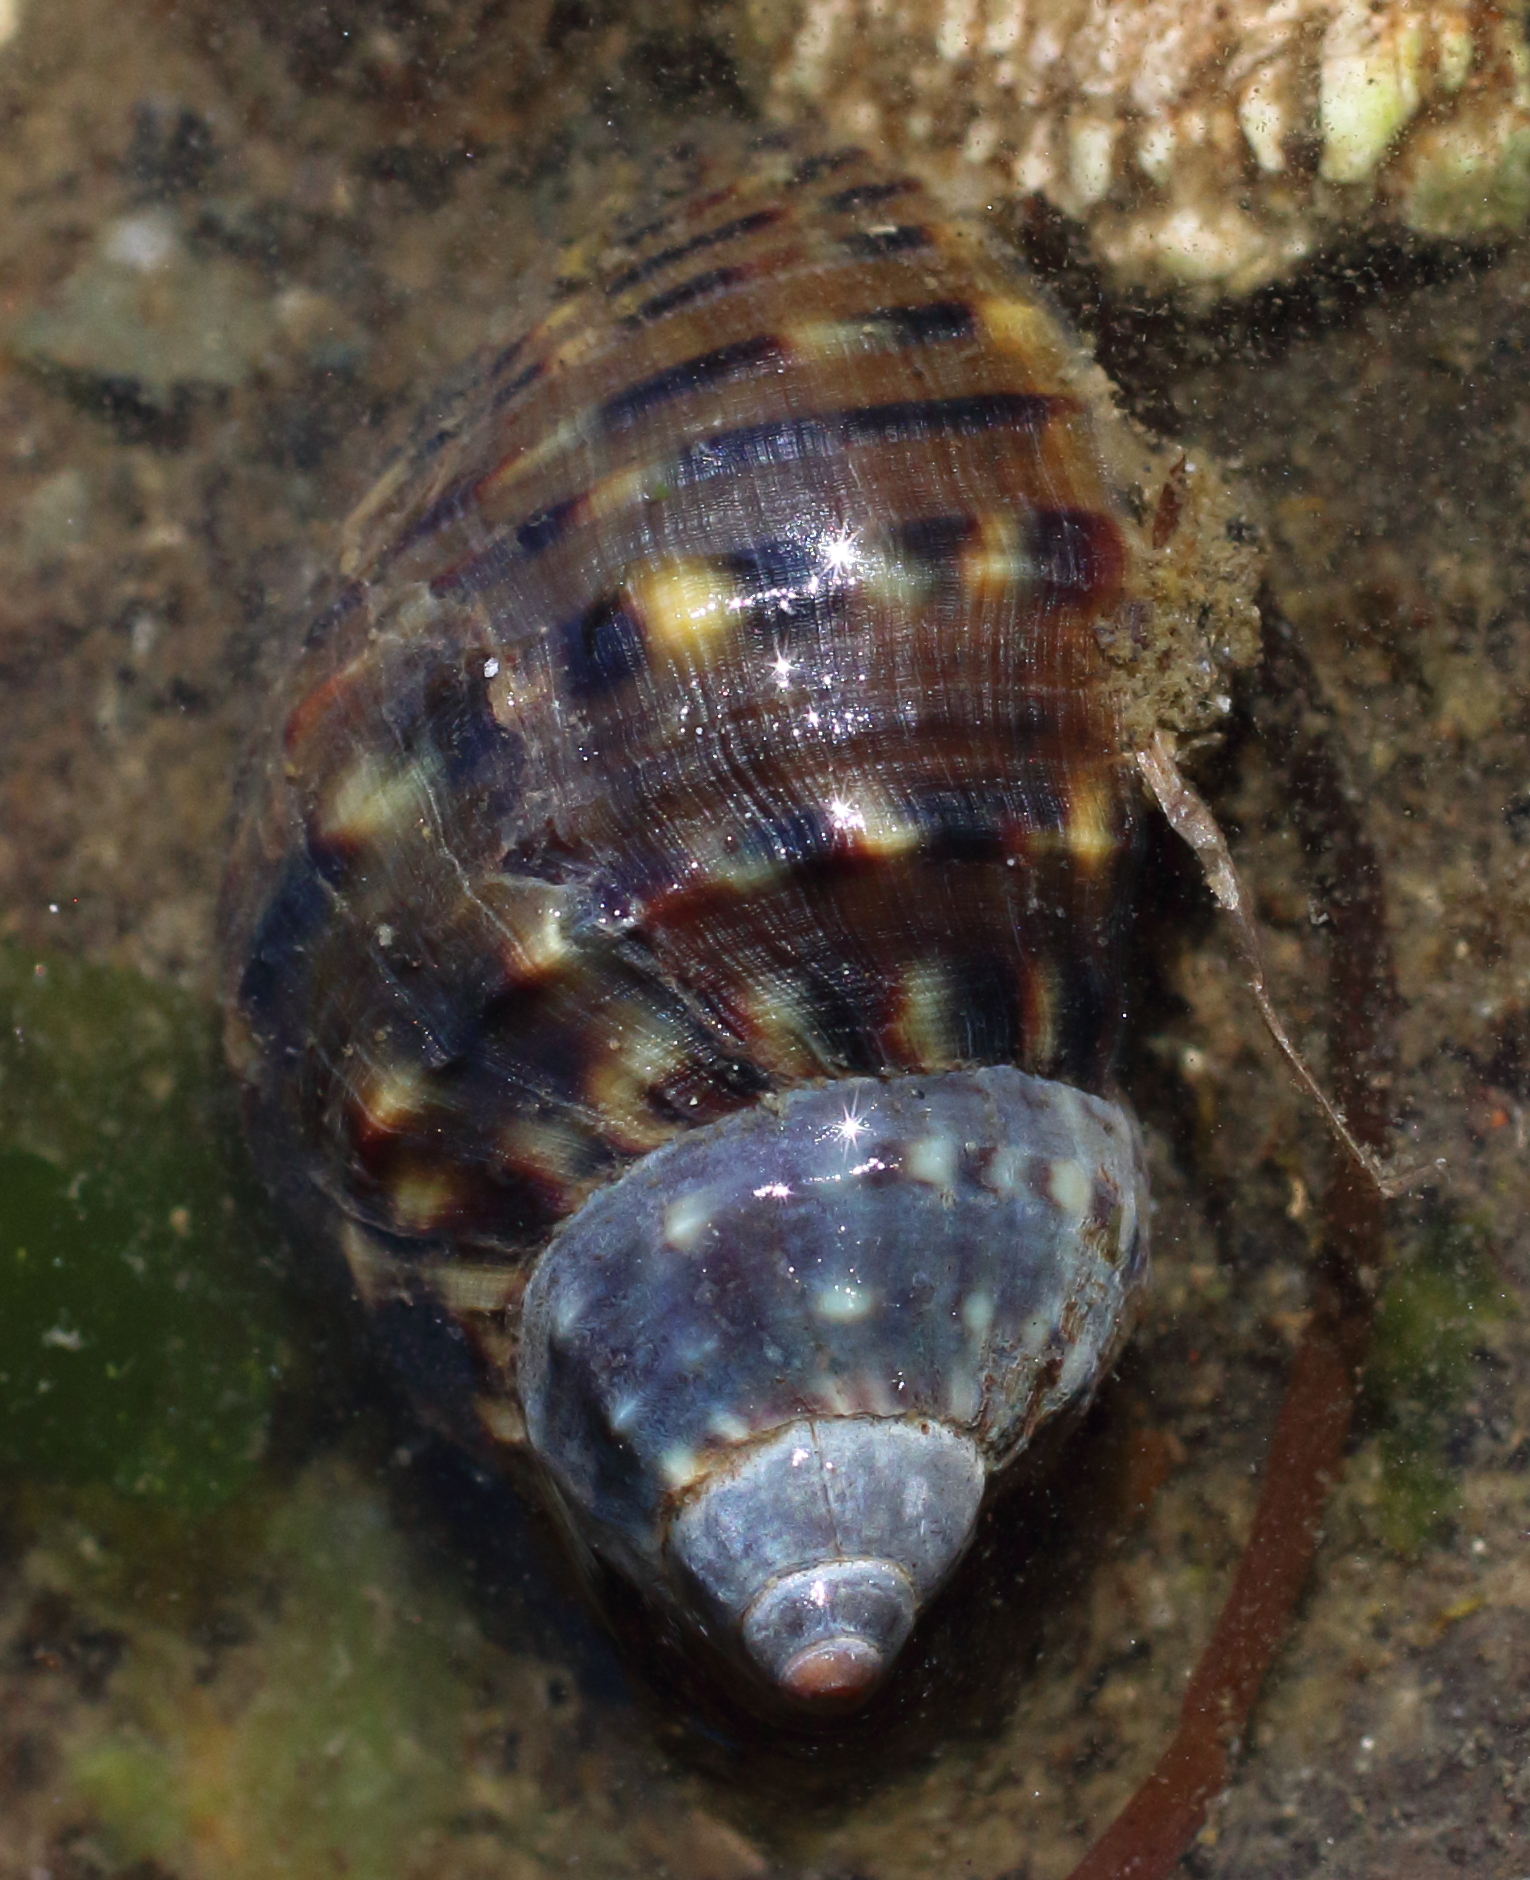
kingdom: Animalia
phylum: Mollusca
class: Gastropoda
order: Neogastropoda
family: Buccinidae
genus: Buccinum
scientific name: Buccinum baerii
